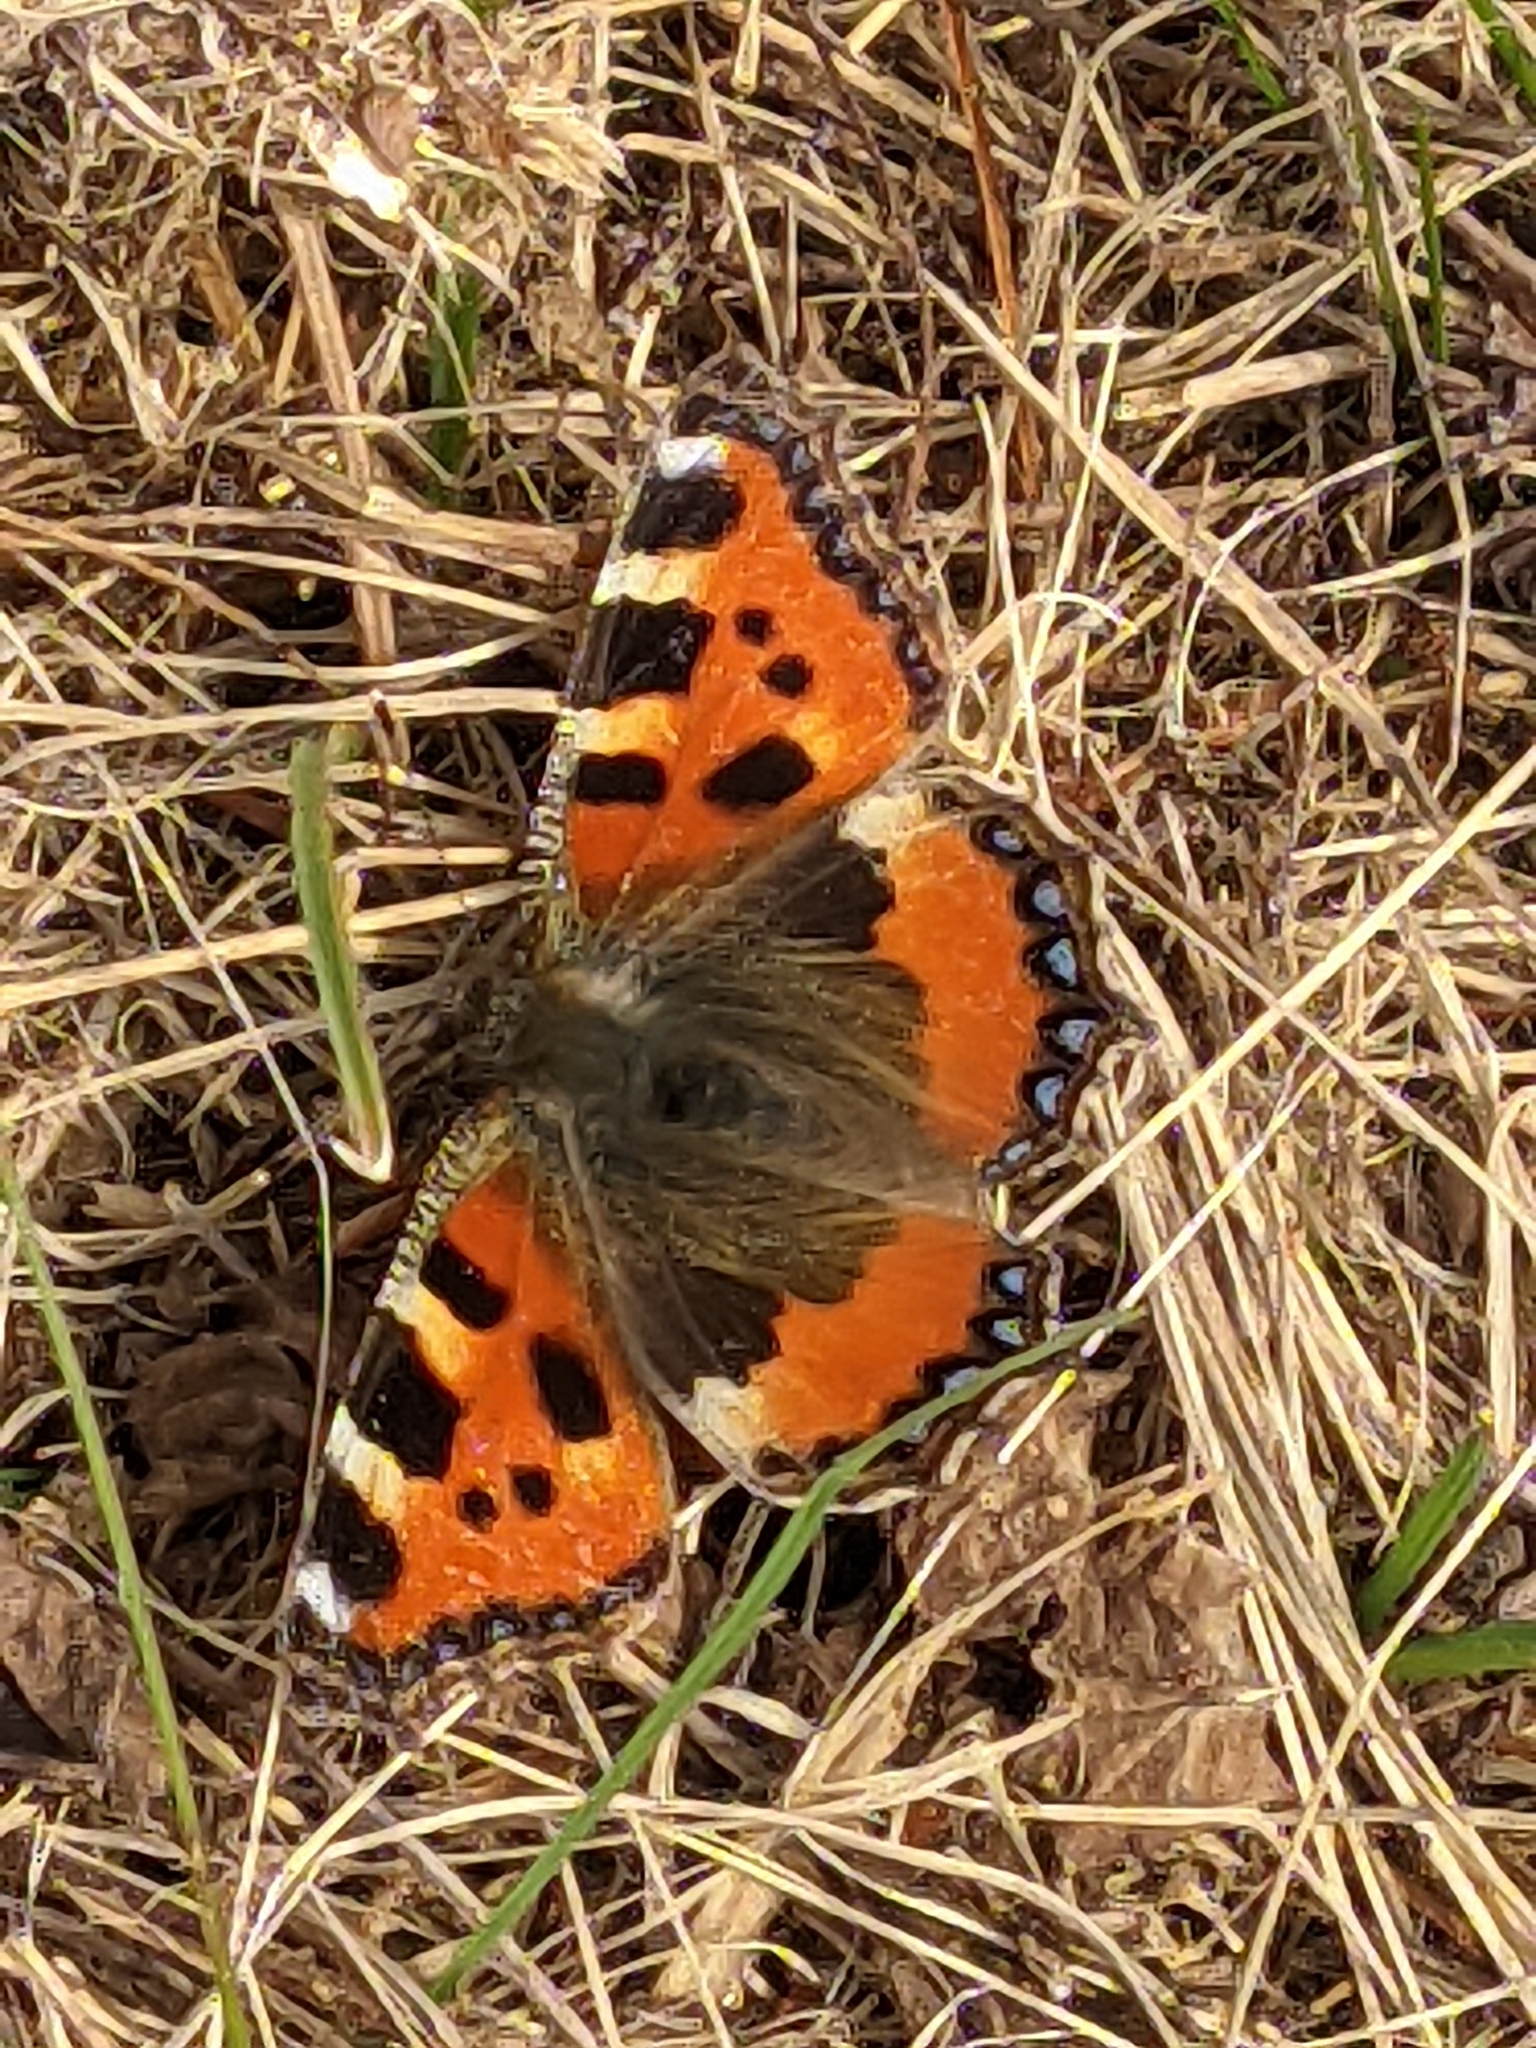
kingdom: Animalia
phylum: Arthropoda
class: Insecta
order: Lepidoptera
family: Nymphalidae
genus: Aglais
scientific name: Aglais urticae
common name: Small tortoiseshell
